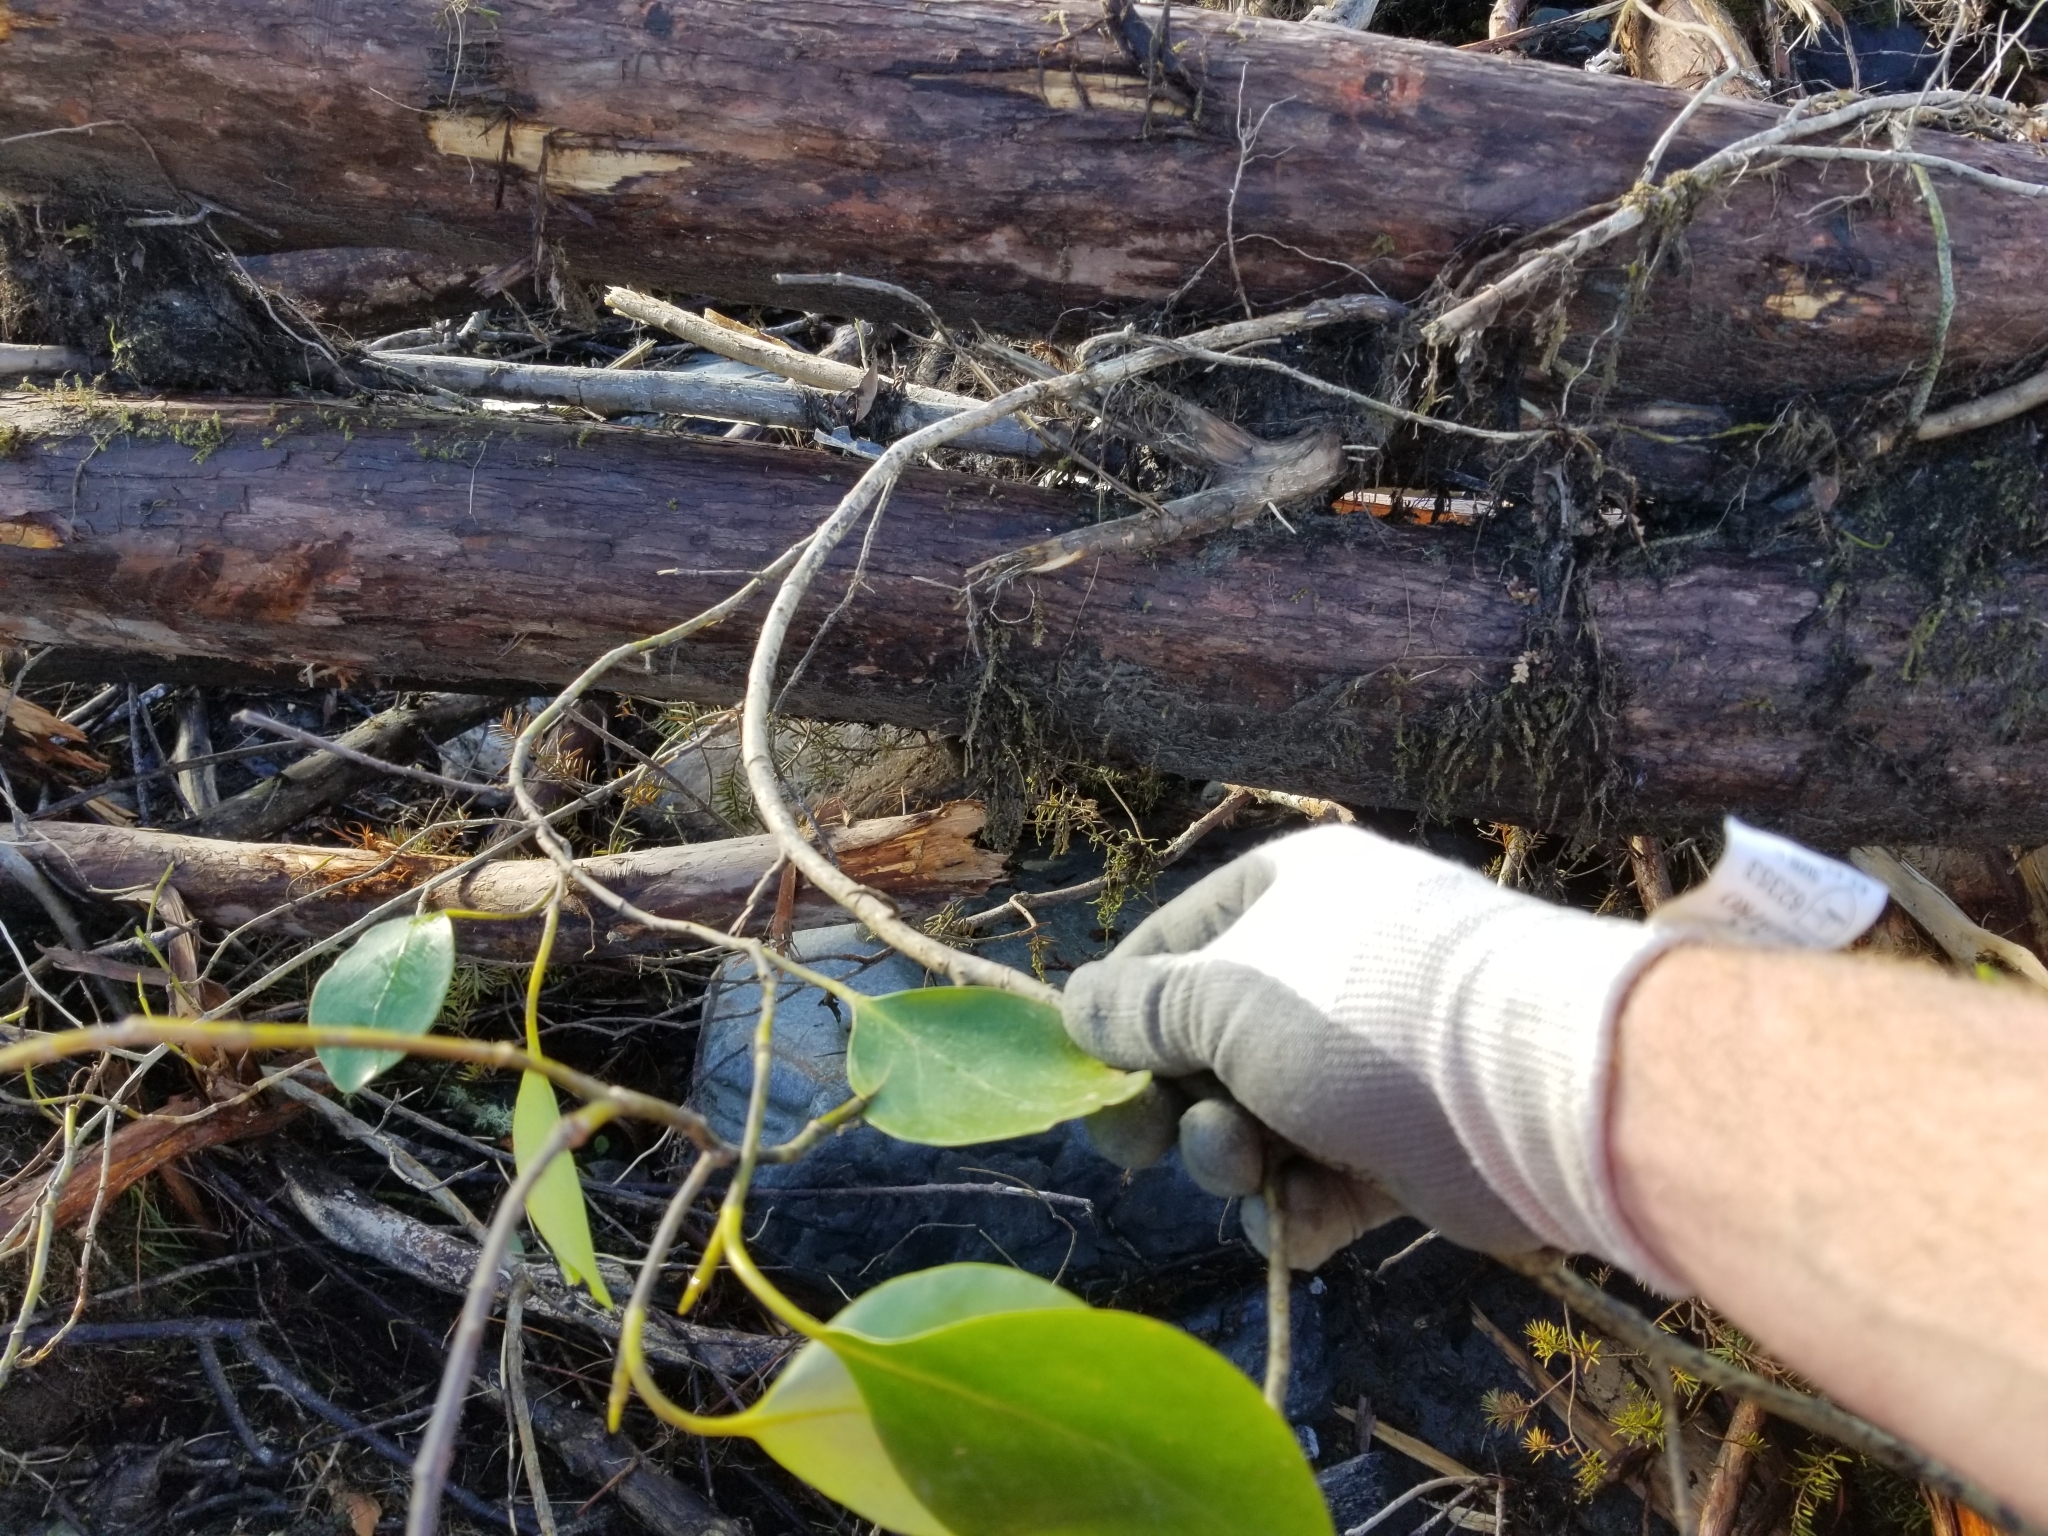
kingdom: Plantae
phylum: Tracheophyta
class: Magnoliopsida
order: Apiales
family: Griseliniaceae
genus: Griselinia
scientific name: Griselinia littoralis
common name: New zealand broadleaf
